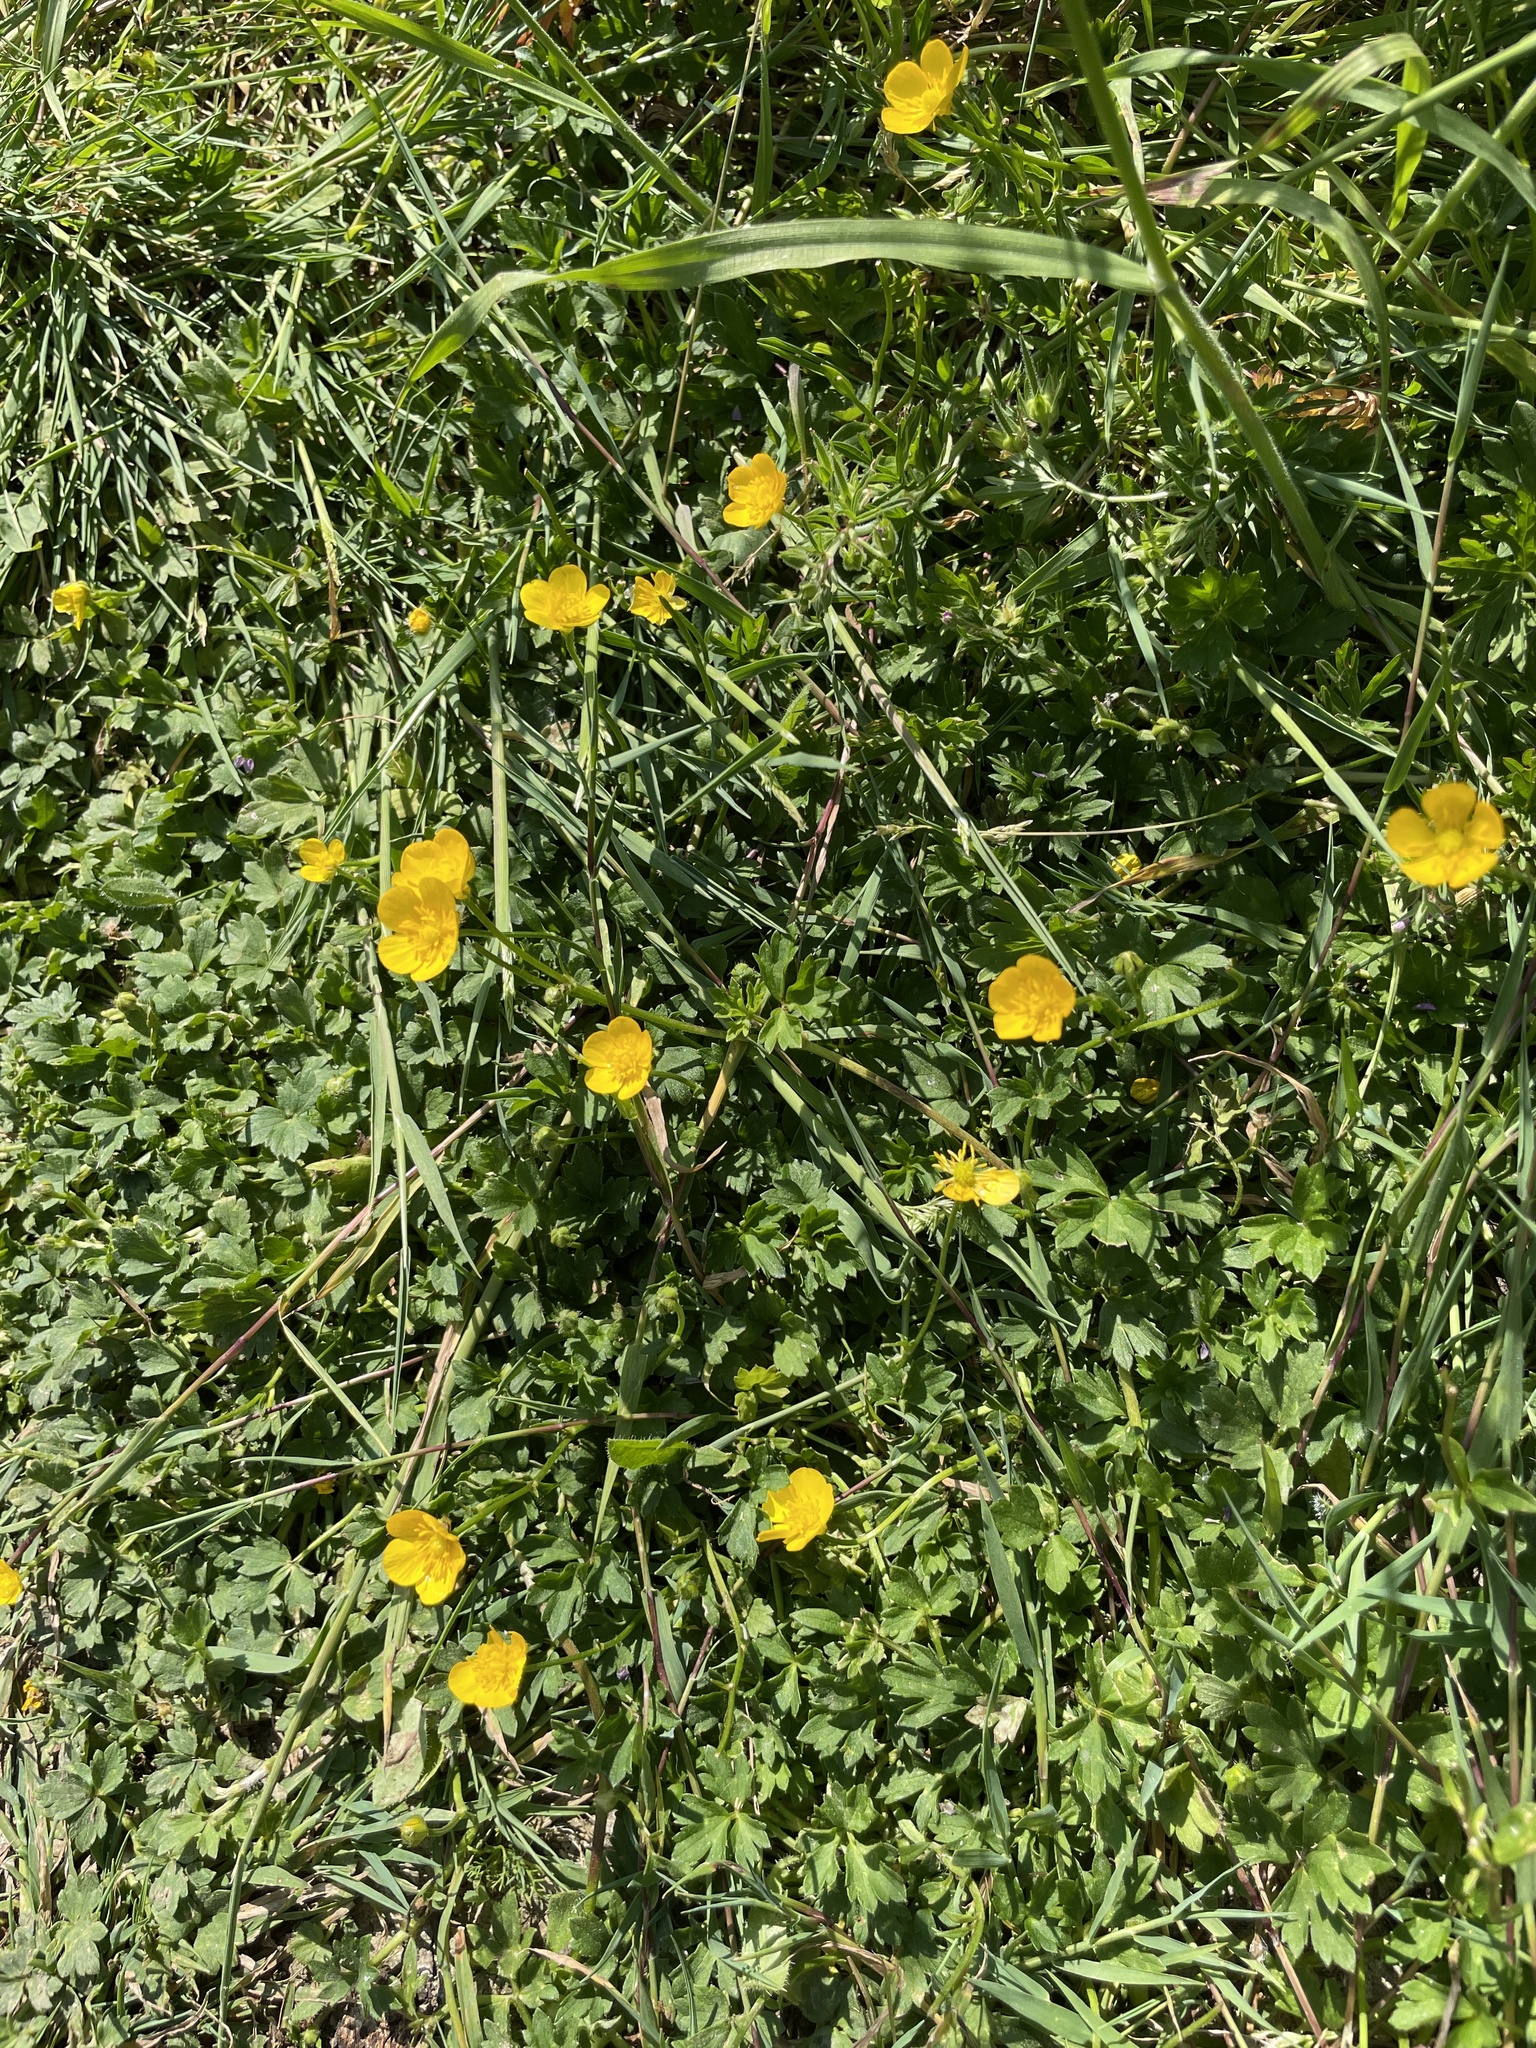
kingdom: Plantae
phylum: Tracheophyta
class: Magnoliopsida
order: Ranunculales
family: Ranunculaceae
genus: Ranunculus
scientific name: Ranunculus repens
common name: Creeping buttercup
